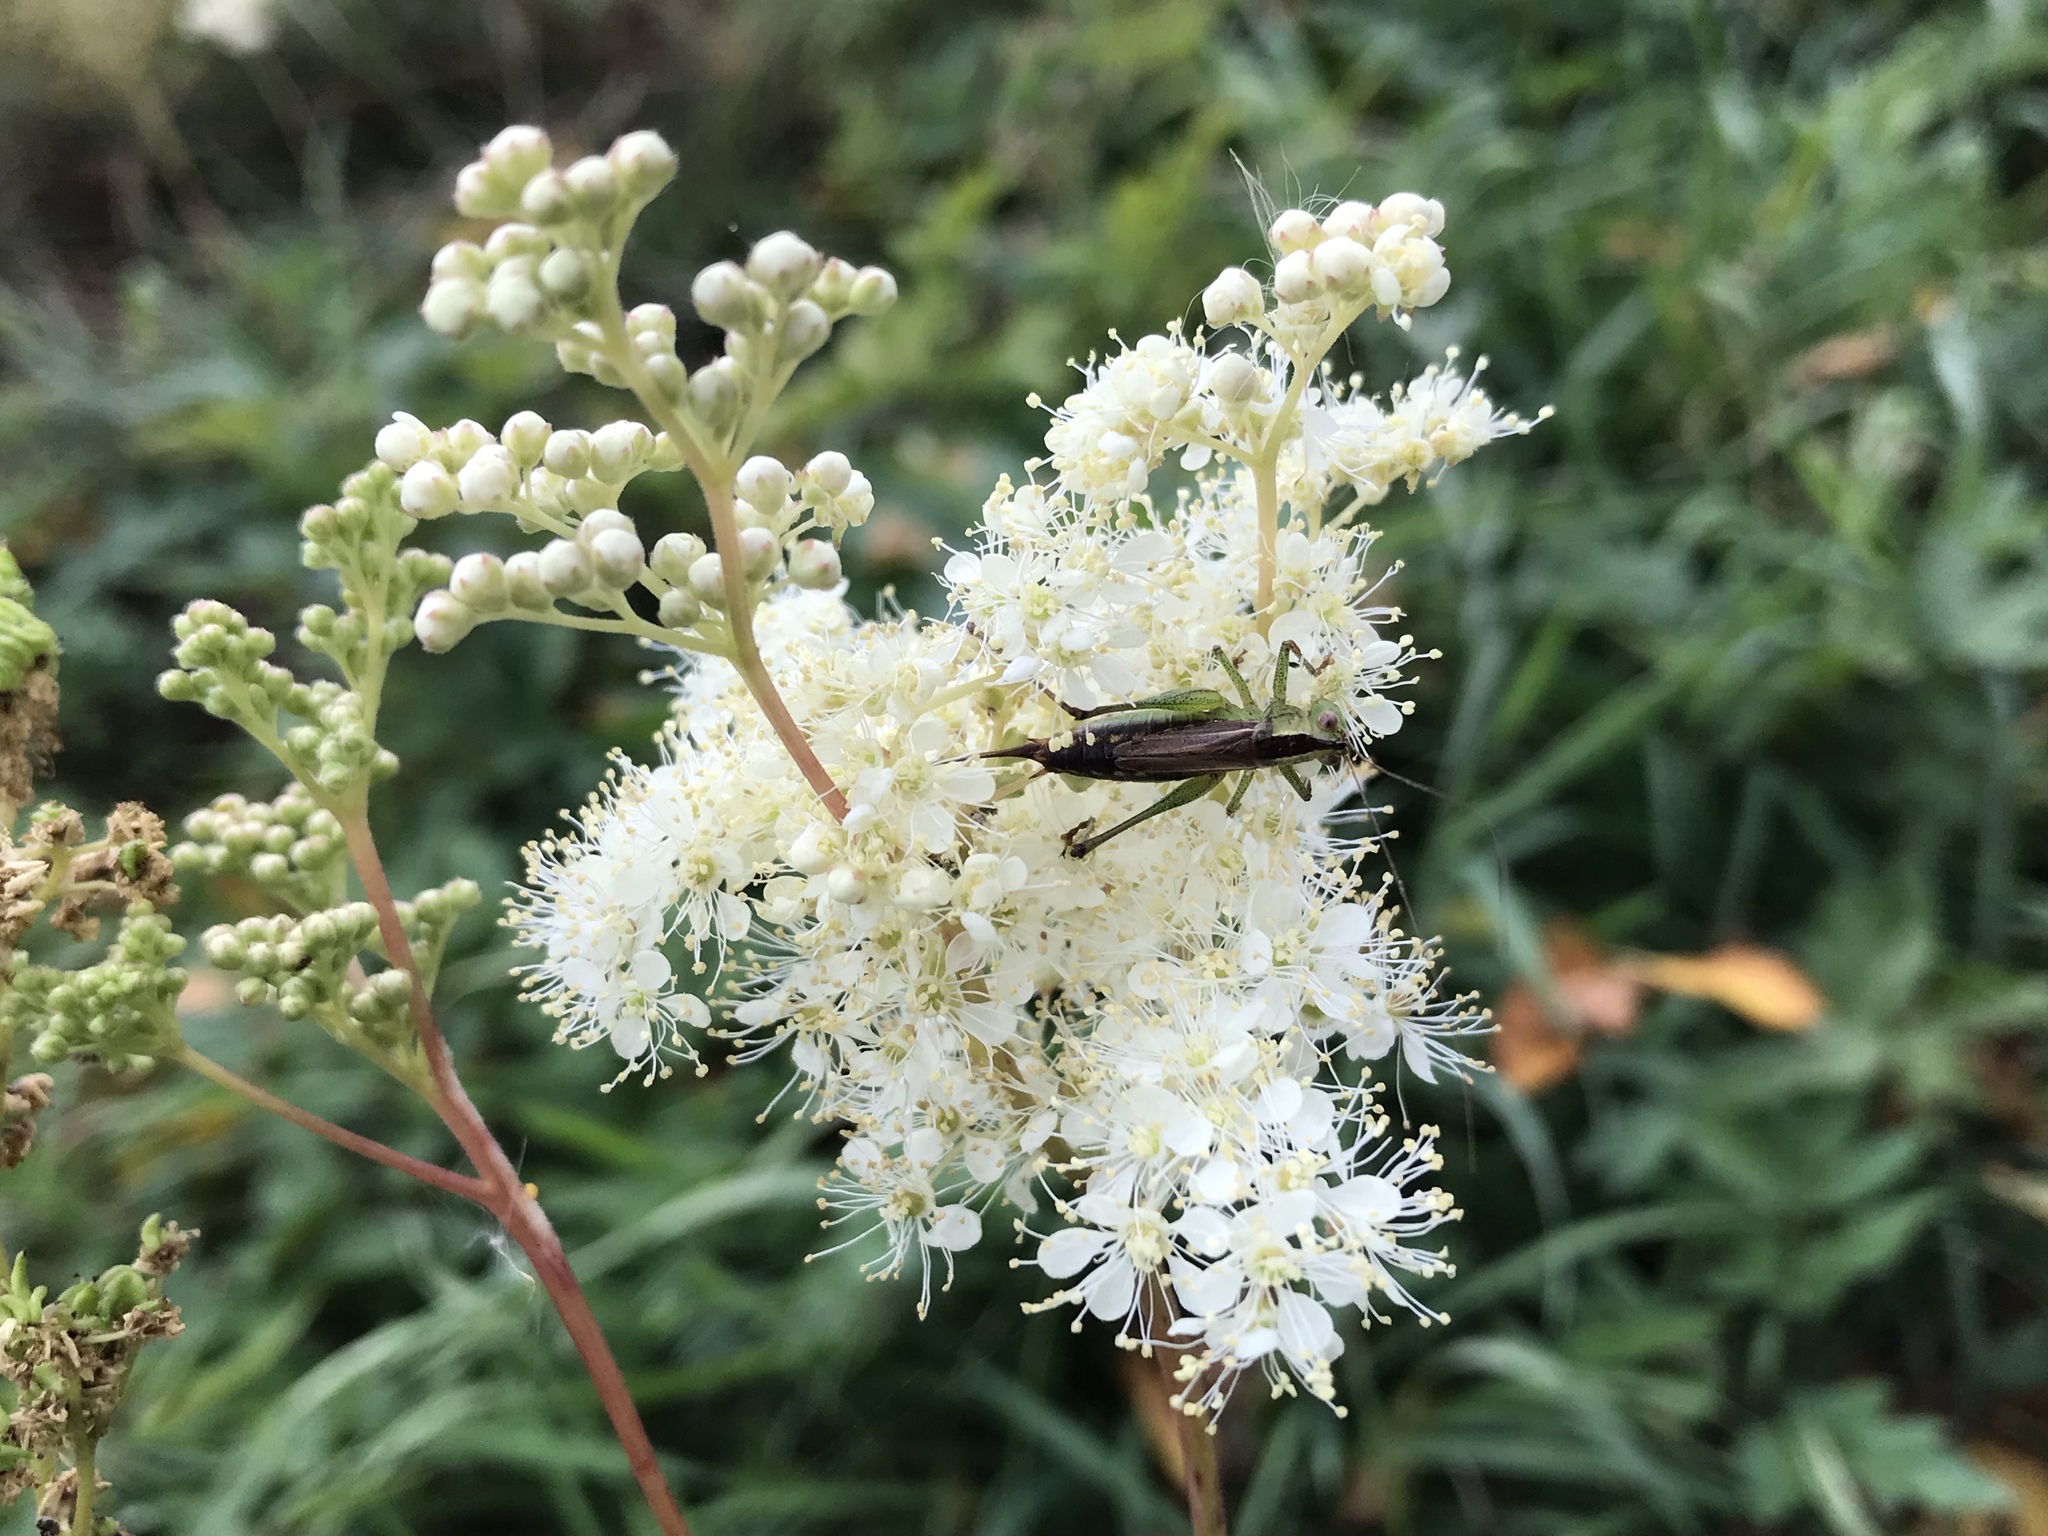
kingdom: Plantae
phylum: Tracheophyta
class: Magnoliopsida
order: Rosales
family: Rosaceae
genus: Filipendula
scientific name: Filipendula ulmaria
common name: Meadowsweet
